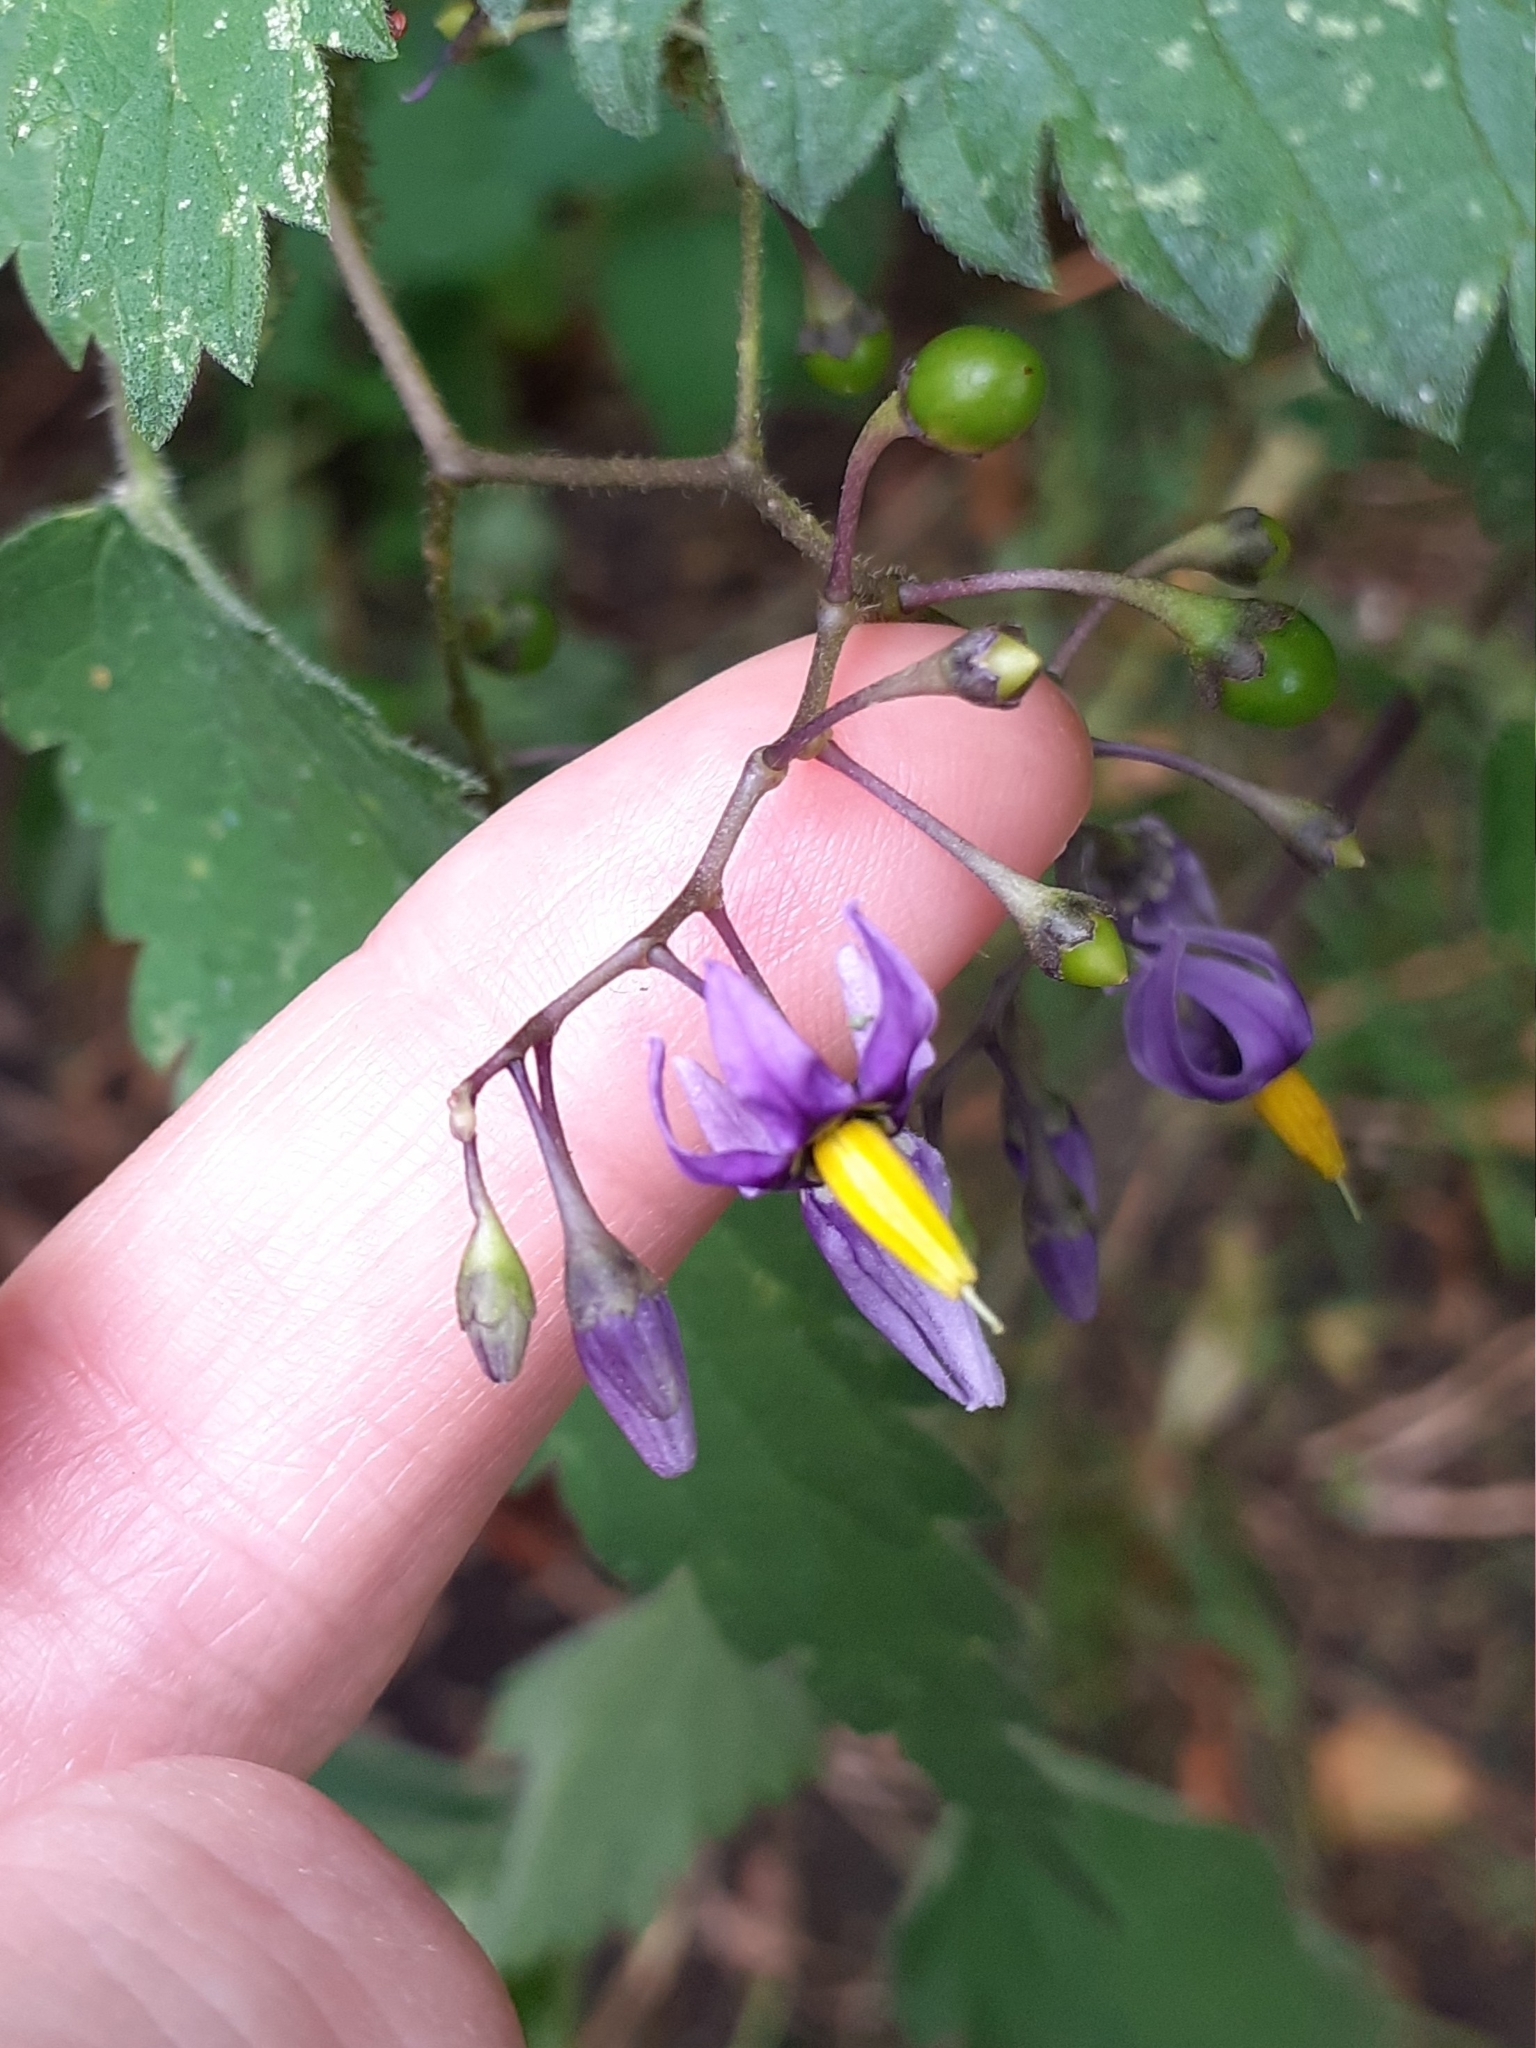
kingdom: Plantae
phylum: Tracheophyta
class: Magnoliopsida
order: Solanales
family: Solanaceae
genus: Solanum
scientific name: Solanum dulcamara
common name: Climbing nightshade
